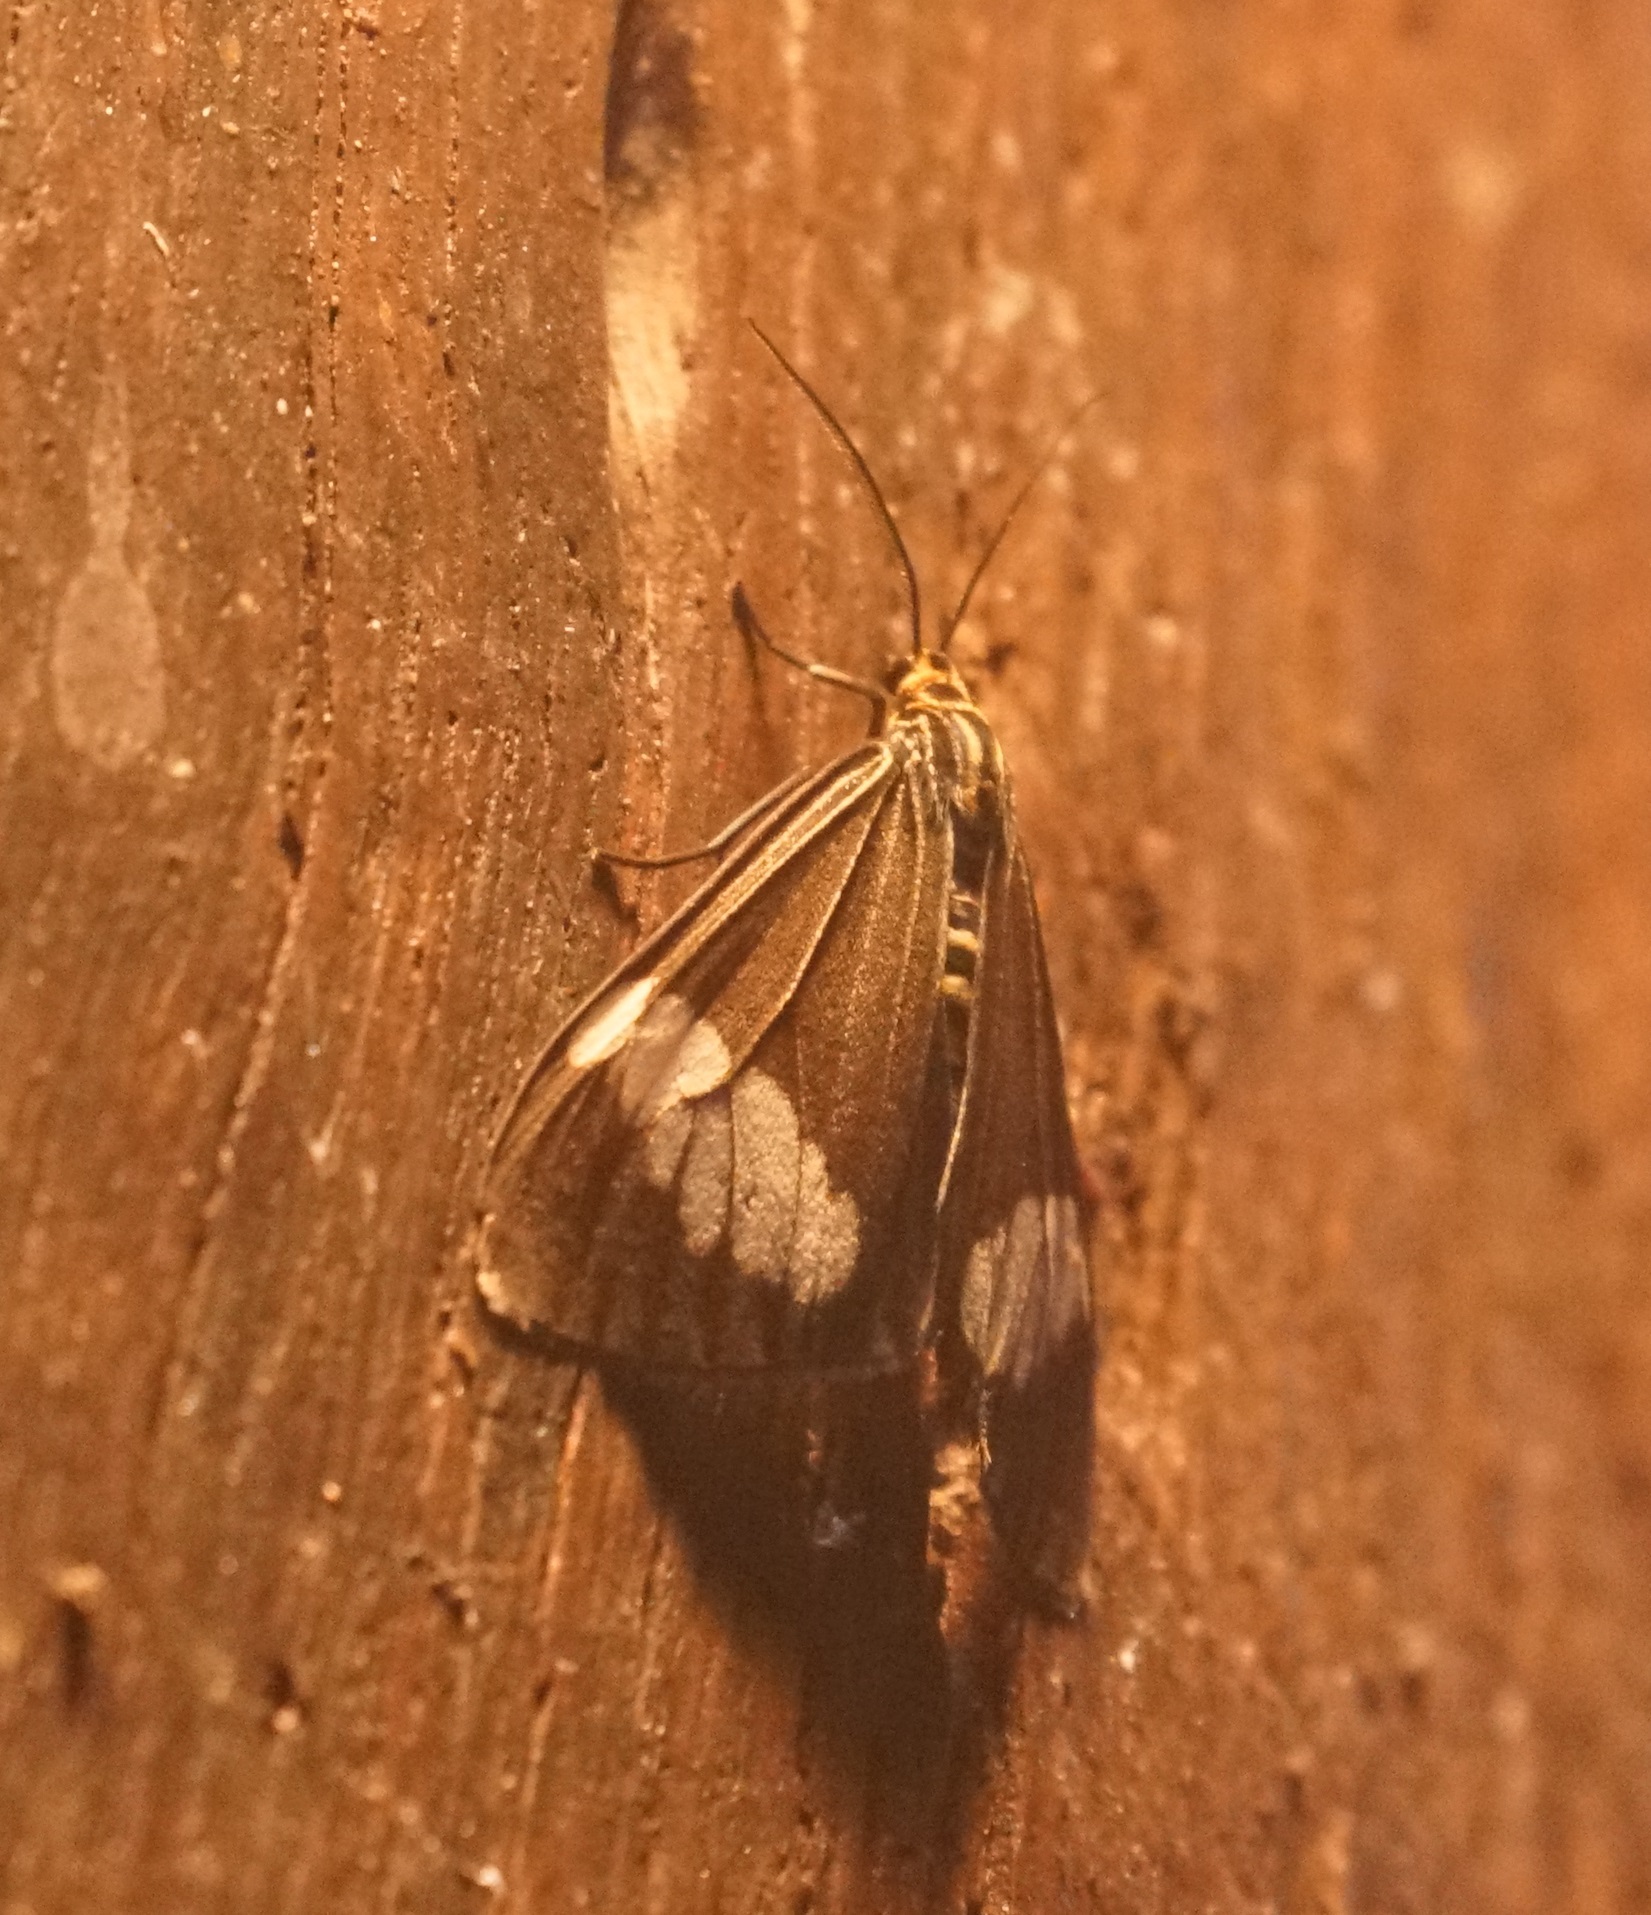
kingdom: Animalia
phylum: Arthropoda
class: Insecta
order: Lepidoptera
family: Erebidae
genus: Nyctemera
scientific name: Nyctemera baulus
